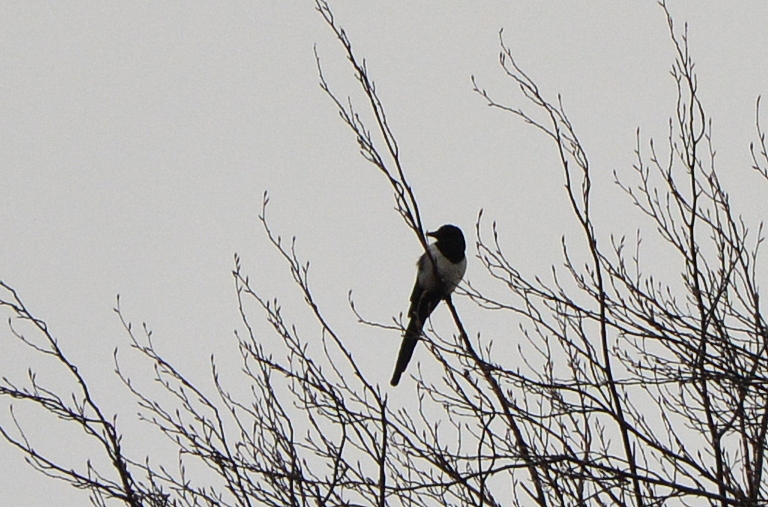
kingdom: Animalia
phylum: Chordata
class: Aves
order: Passeriformes
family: Corvidae
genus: Pica
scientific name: Pica pica
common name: Eurasian magpie
